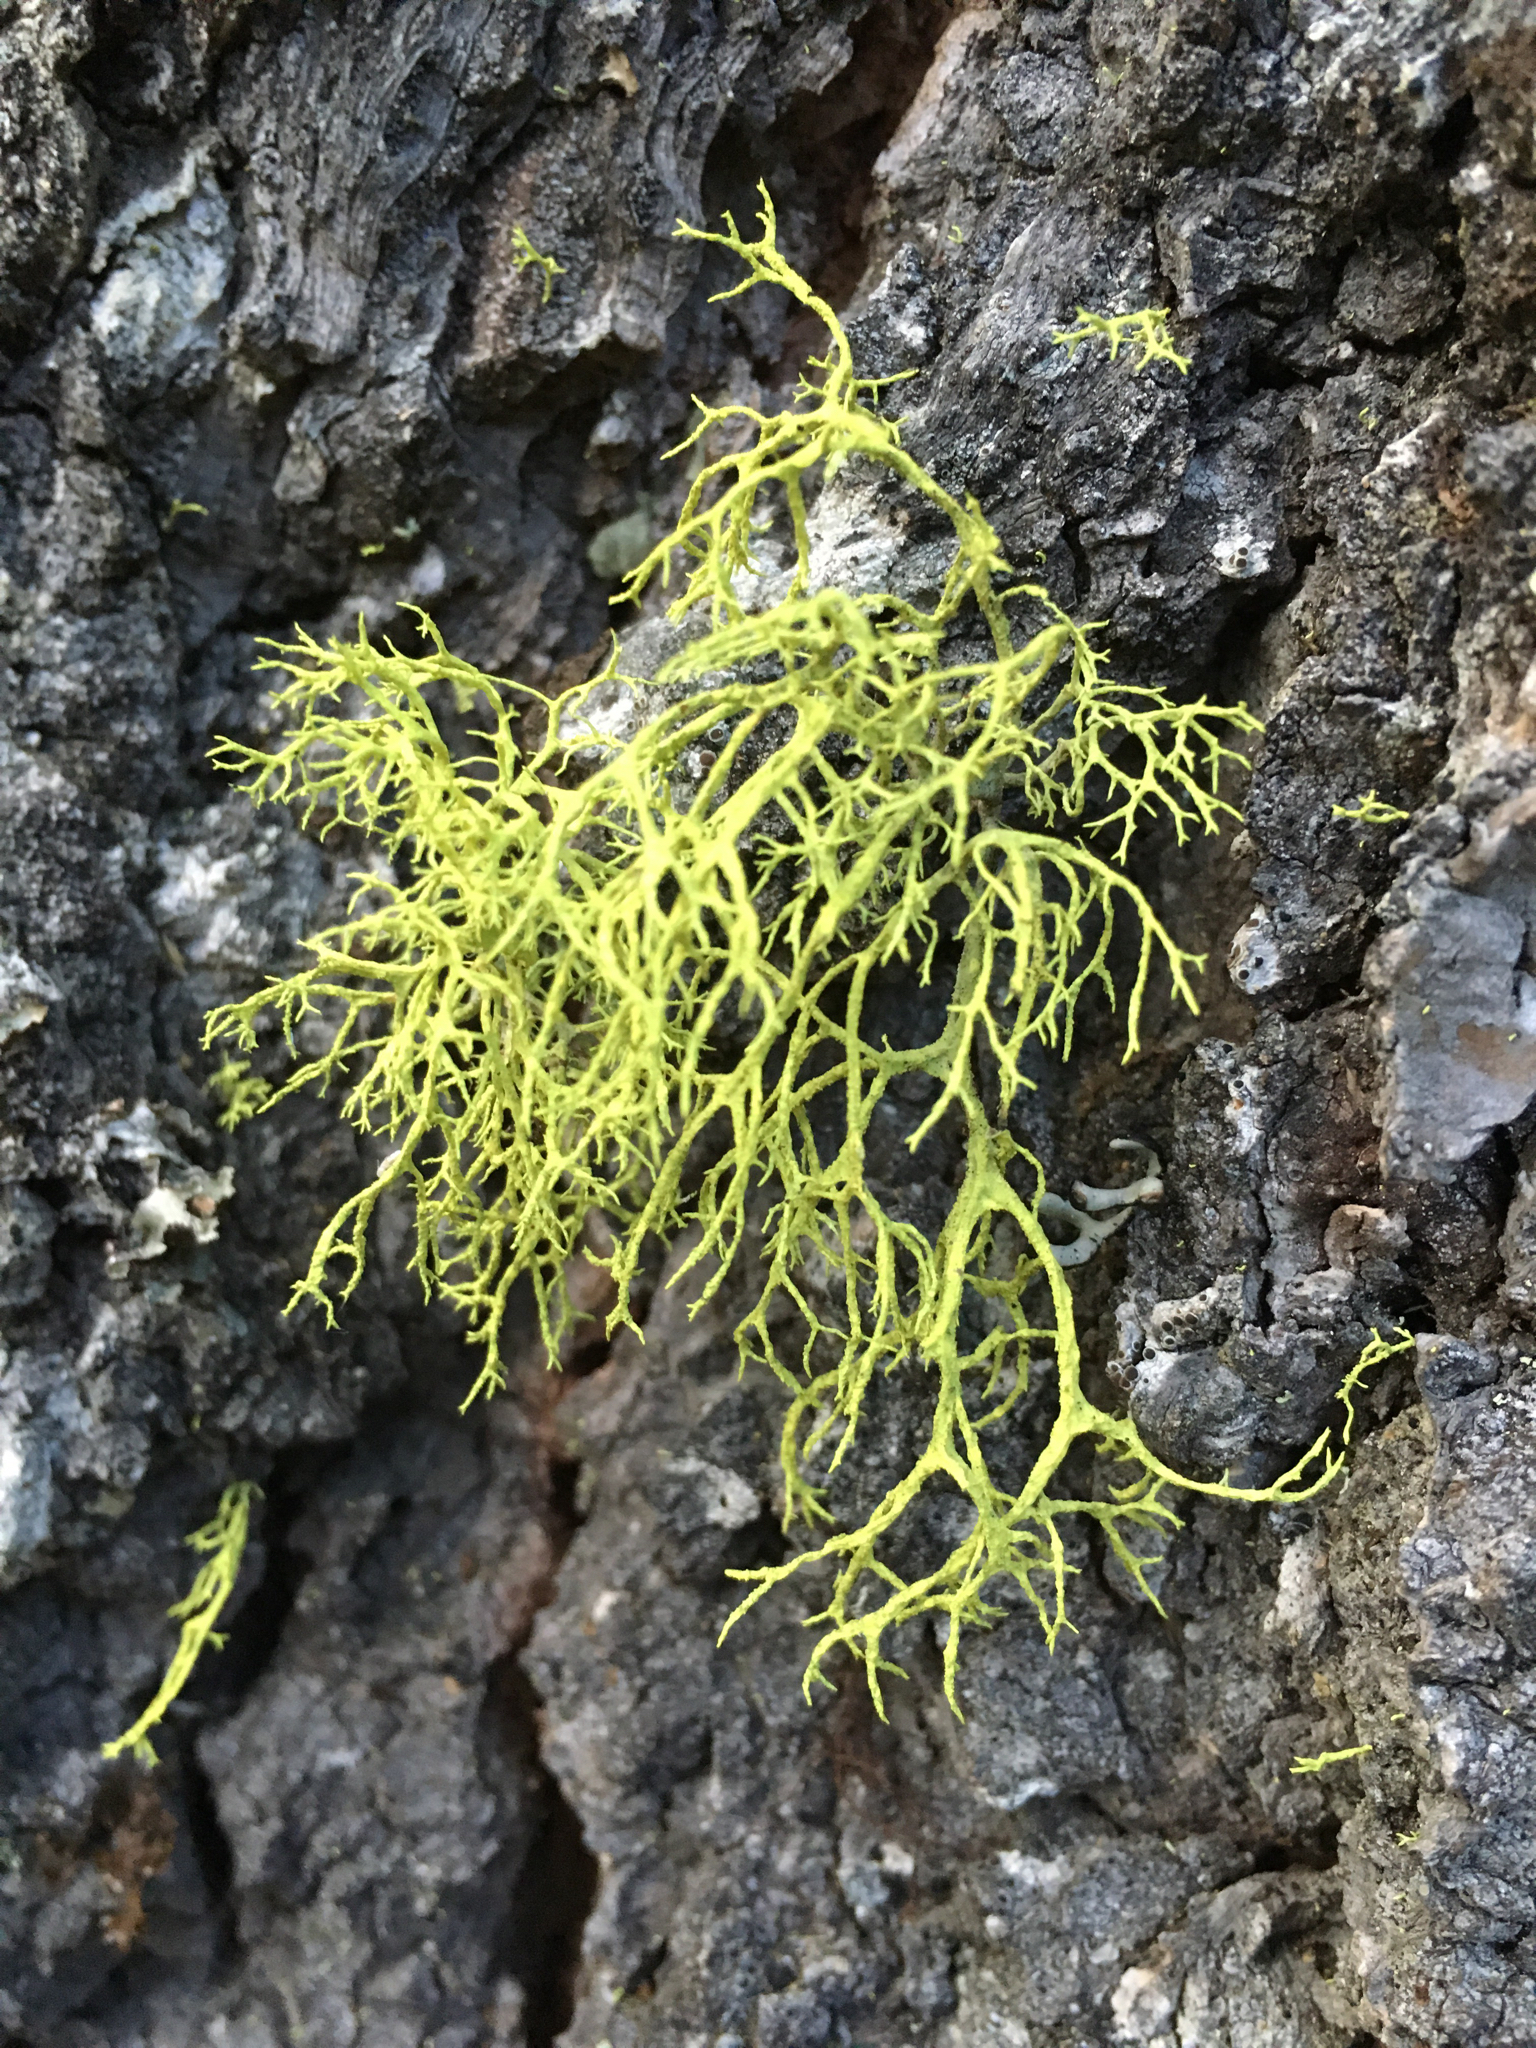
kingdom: Fungi
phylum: Ascomycota
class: Lecanoromycetes
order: Lecanorales
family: Parmeliaceae
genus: Letharia
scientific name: Letharia vulpina
